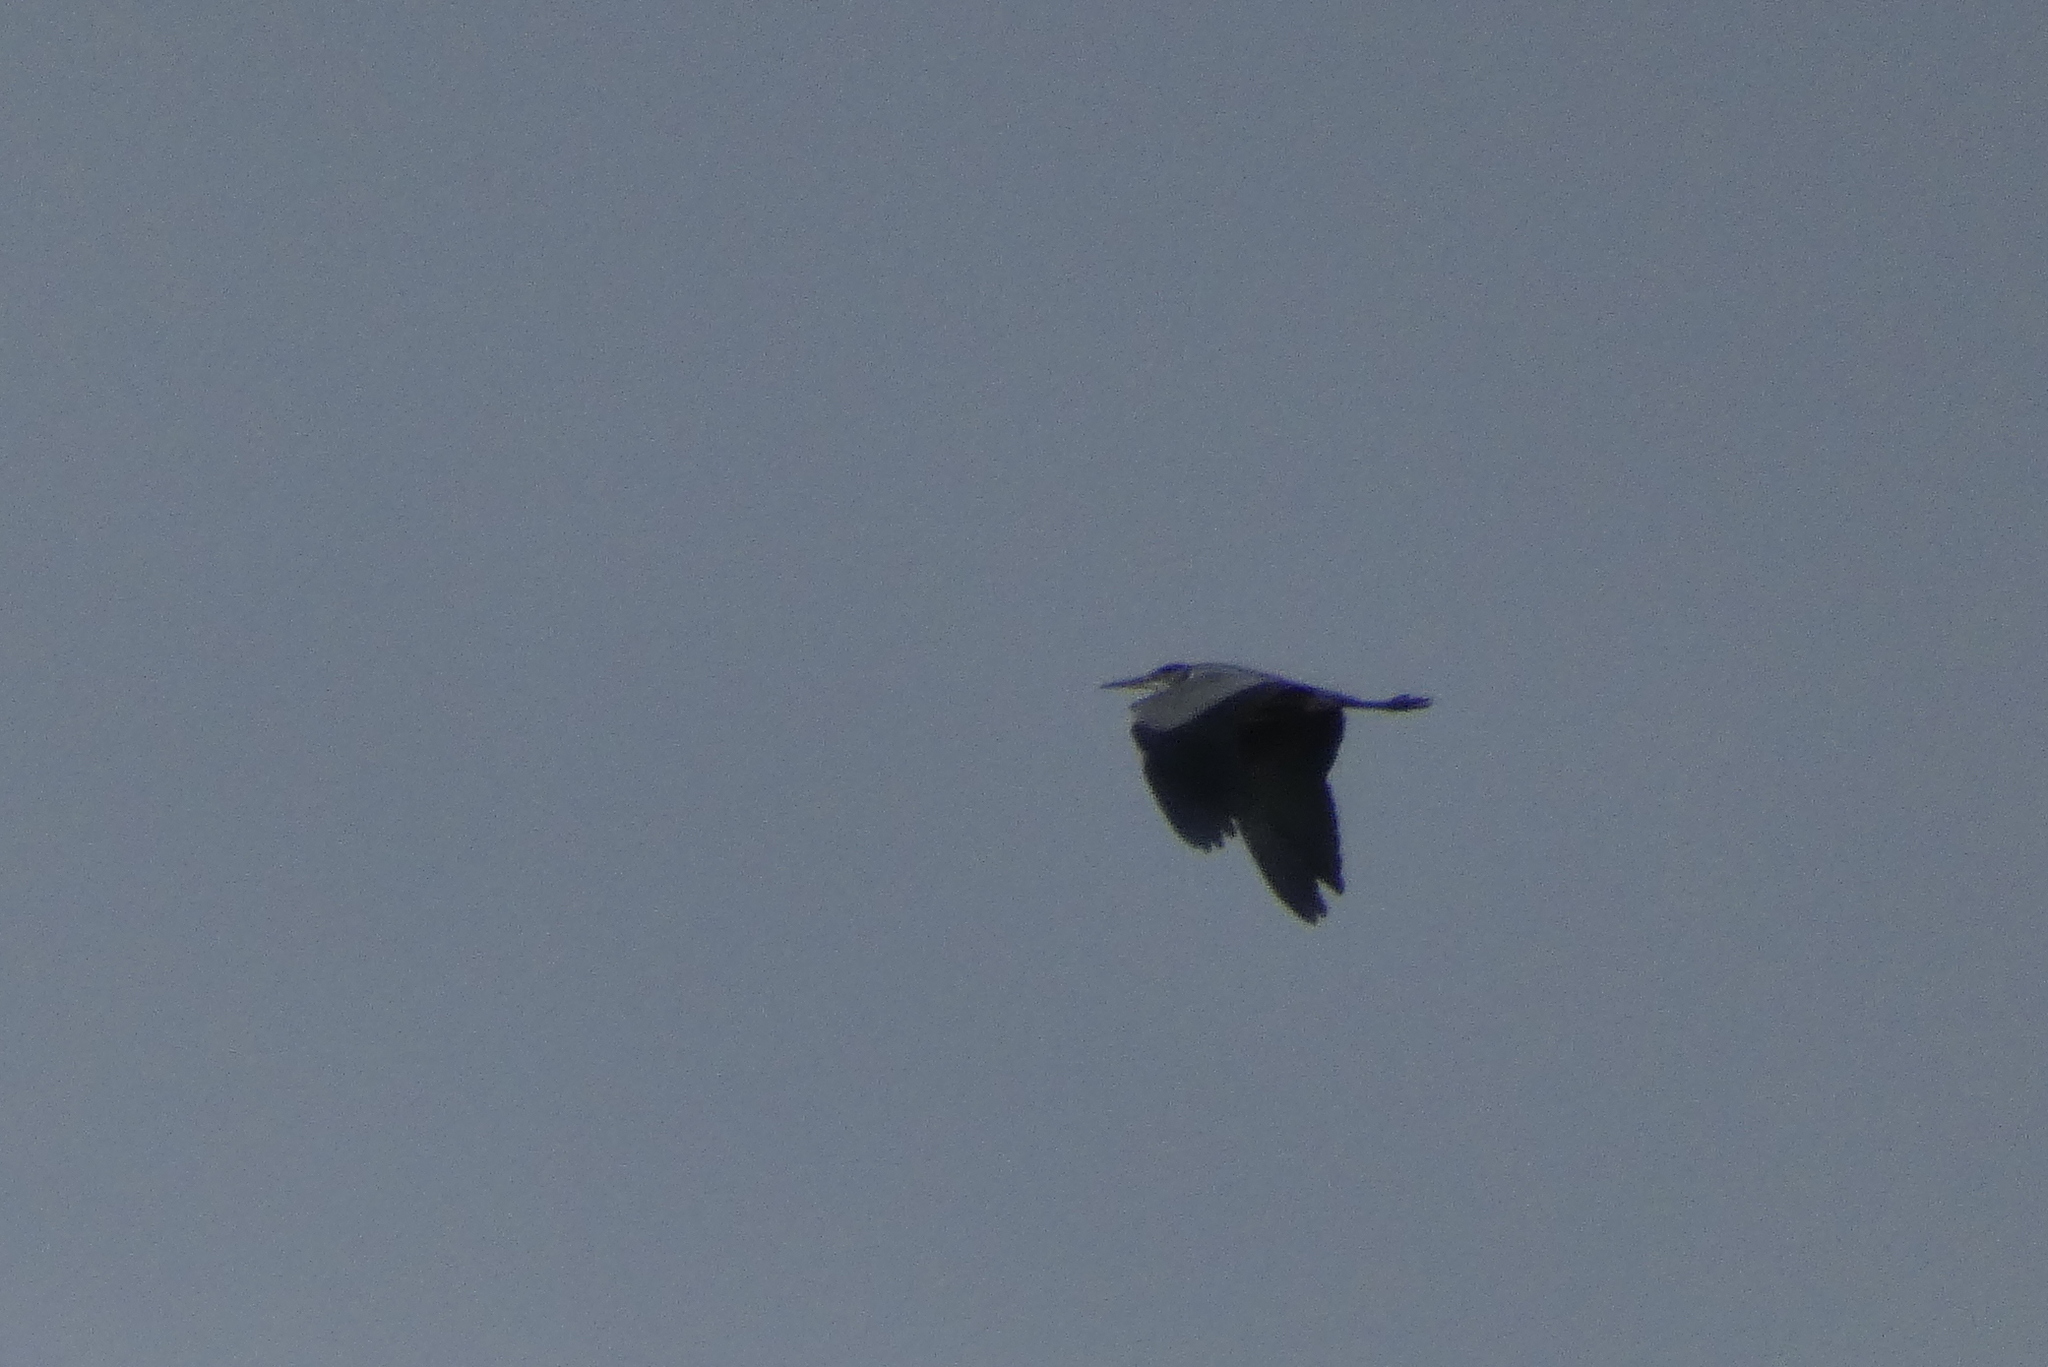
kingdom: Animalia
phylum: Chordata
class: Aves
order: Pelecaniformes
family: Ardeidae
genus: Ardea
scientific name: Ardea cinerea
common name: Grey heron
